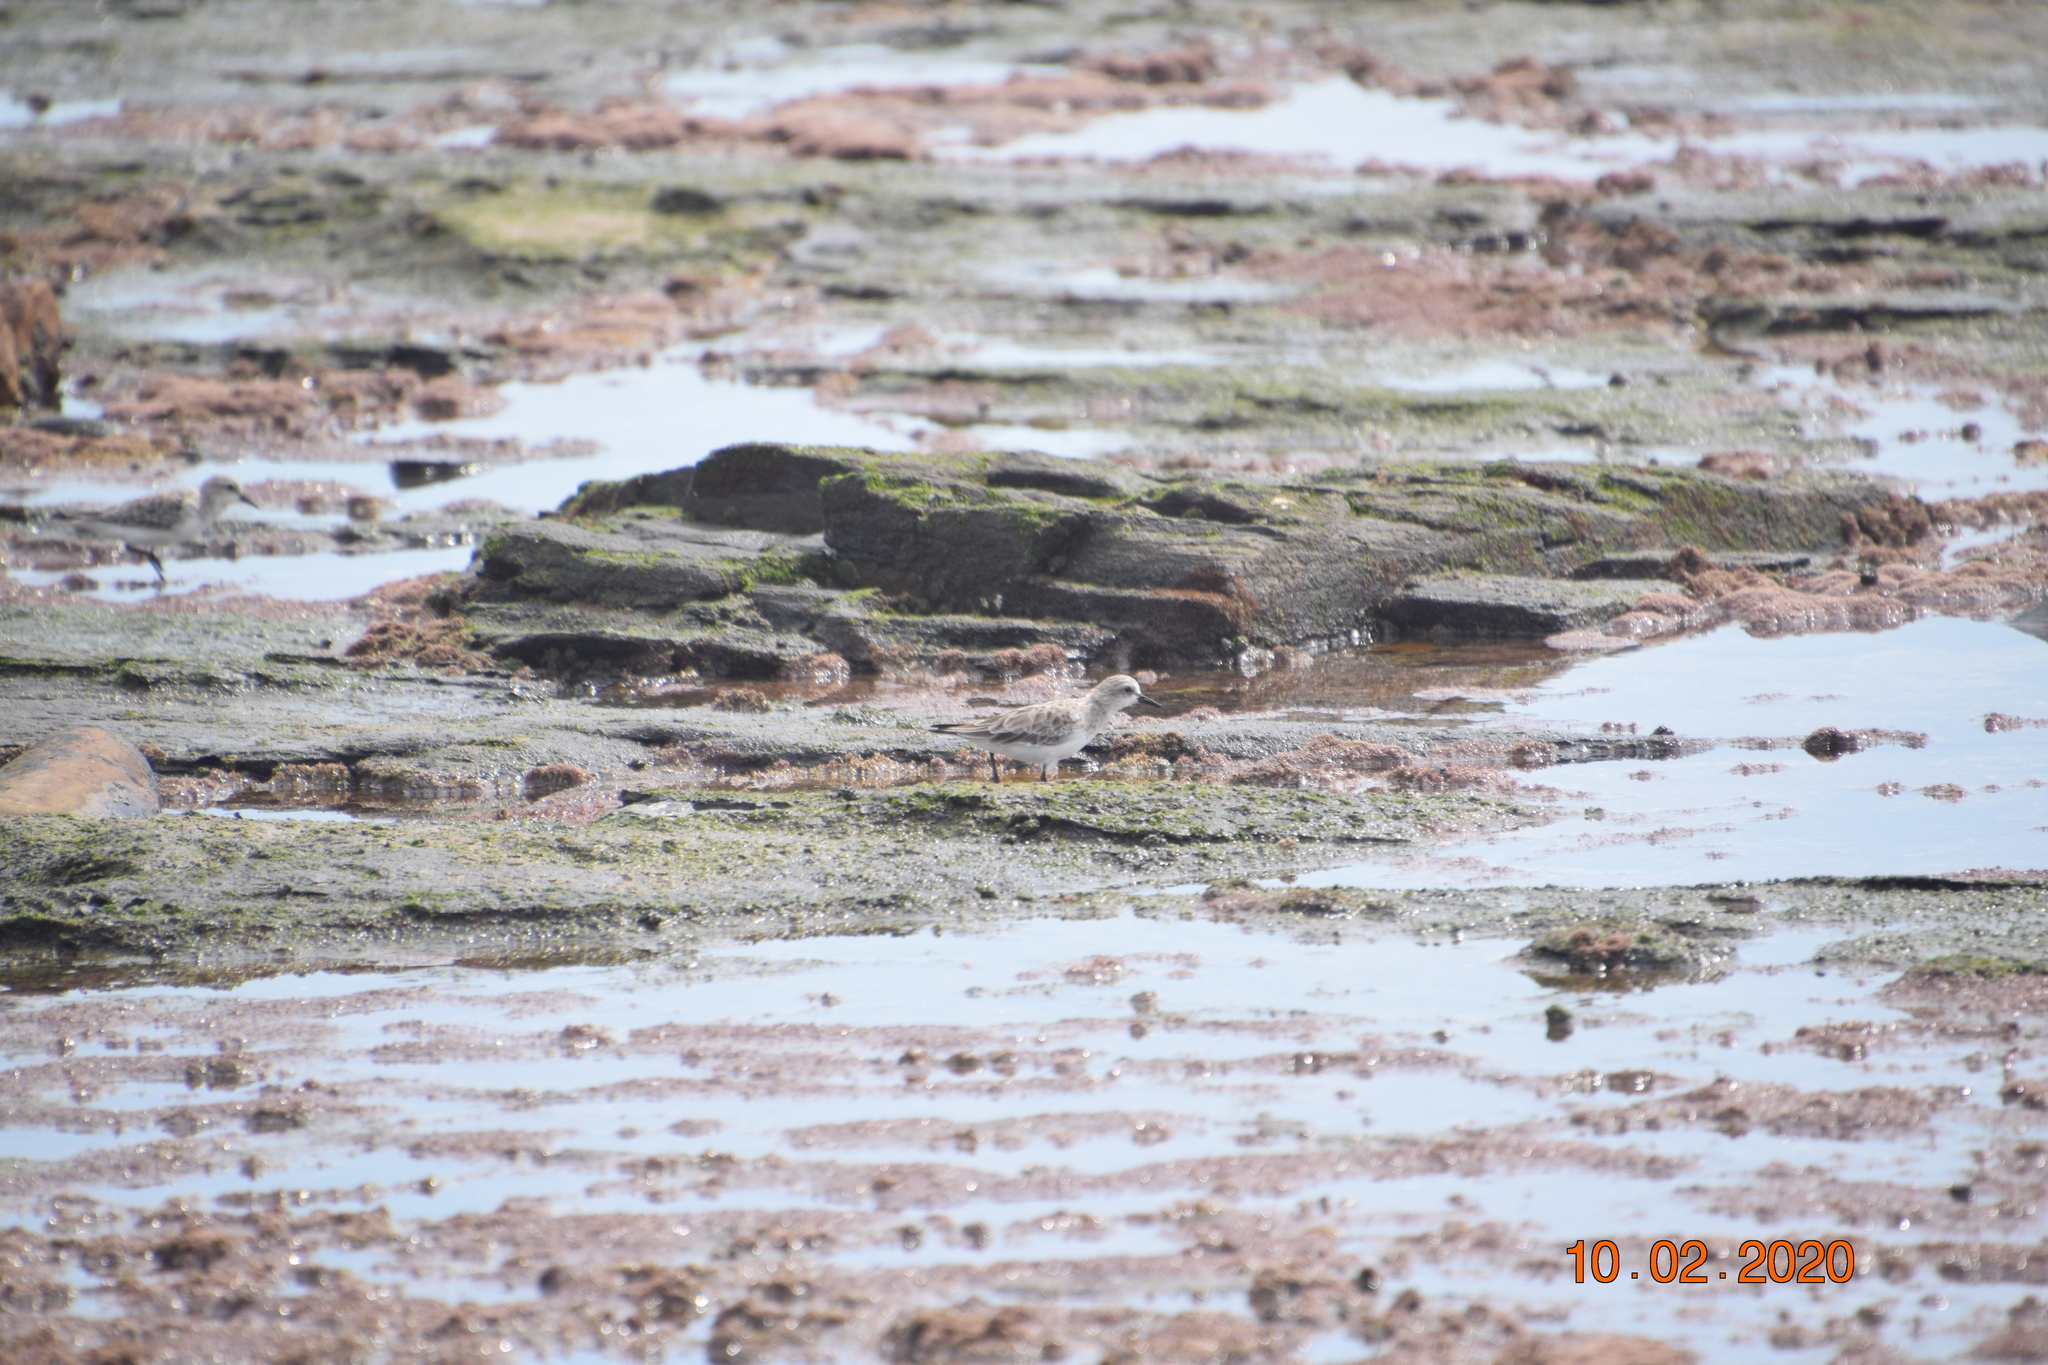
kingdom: Animalia
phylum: Chordata
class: Aves
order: Charadriiformes
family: Scolopacidae
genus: Calidris
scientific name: Calidris ruficollis
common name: Red-necked stint
